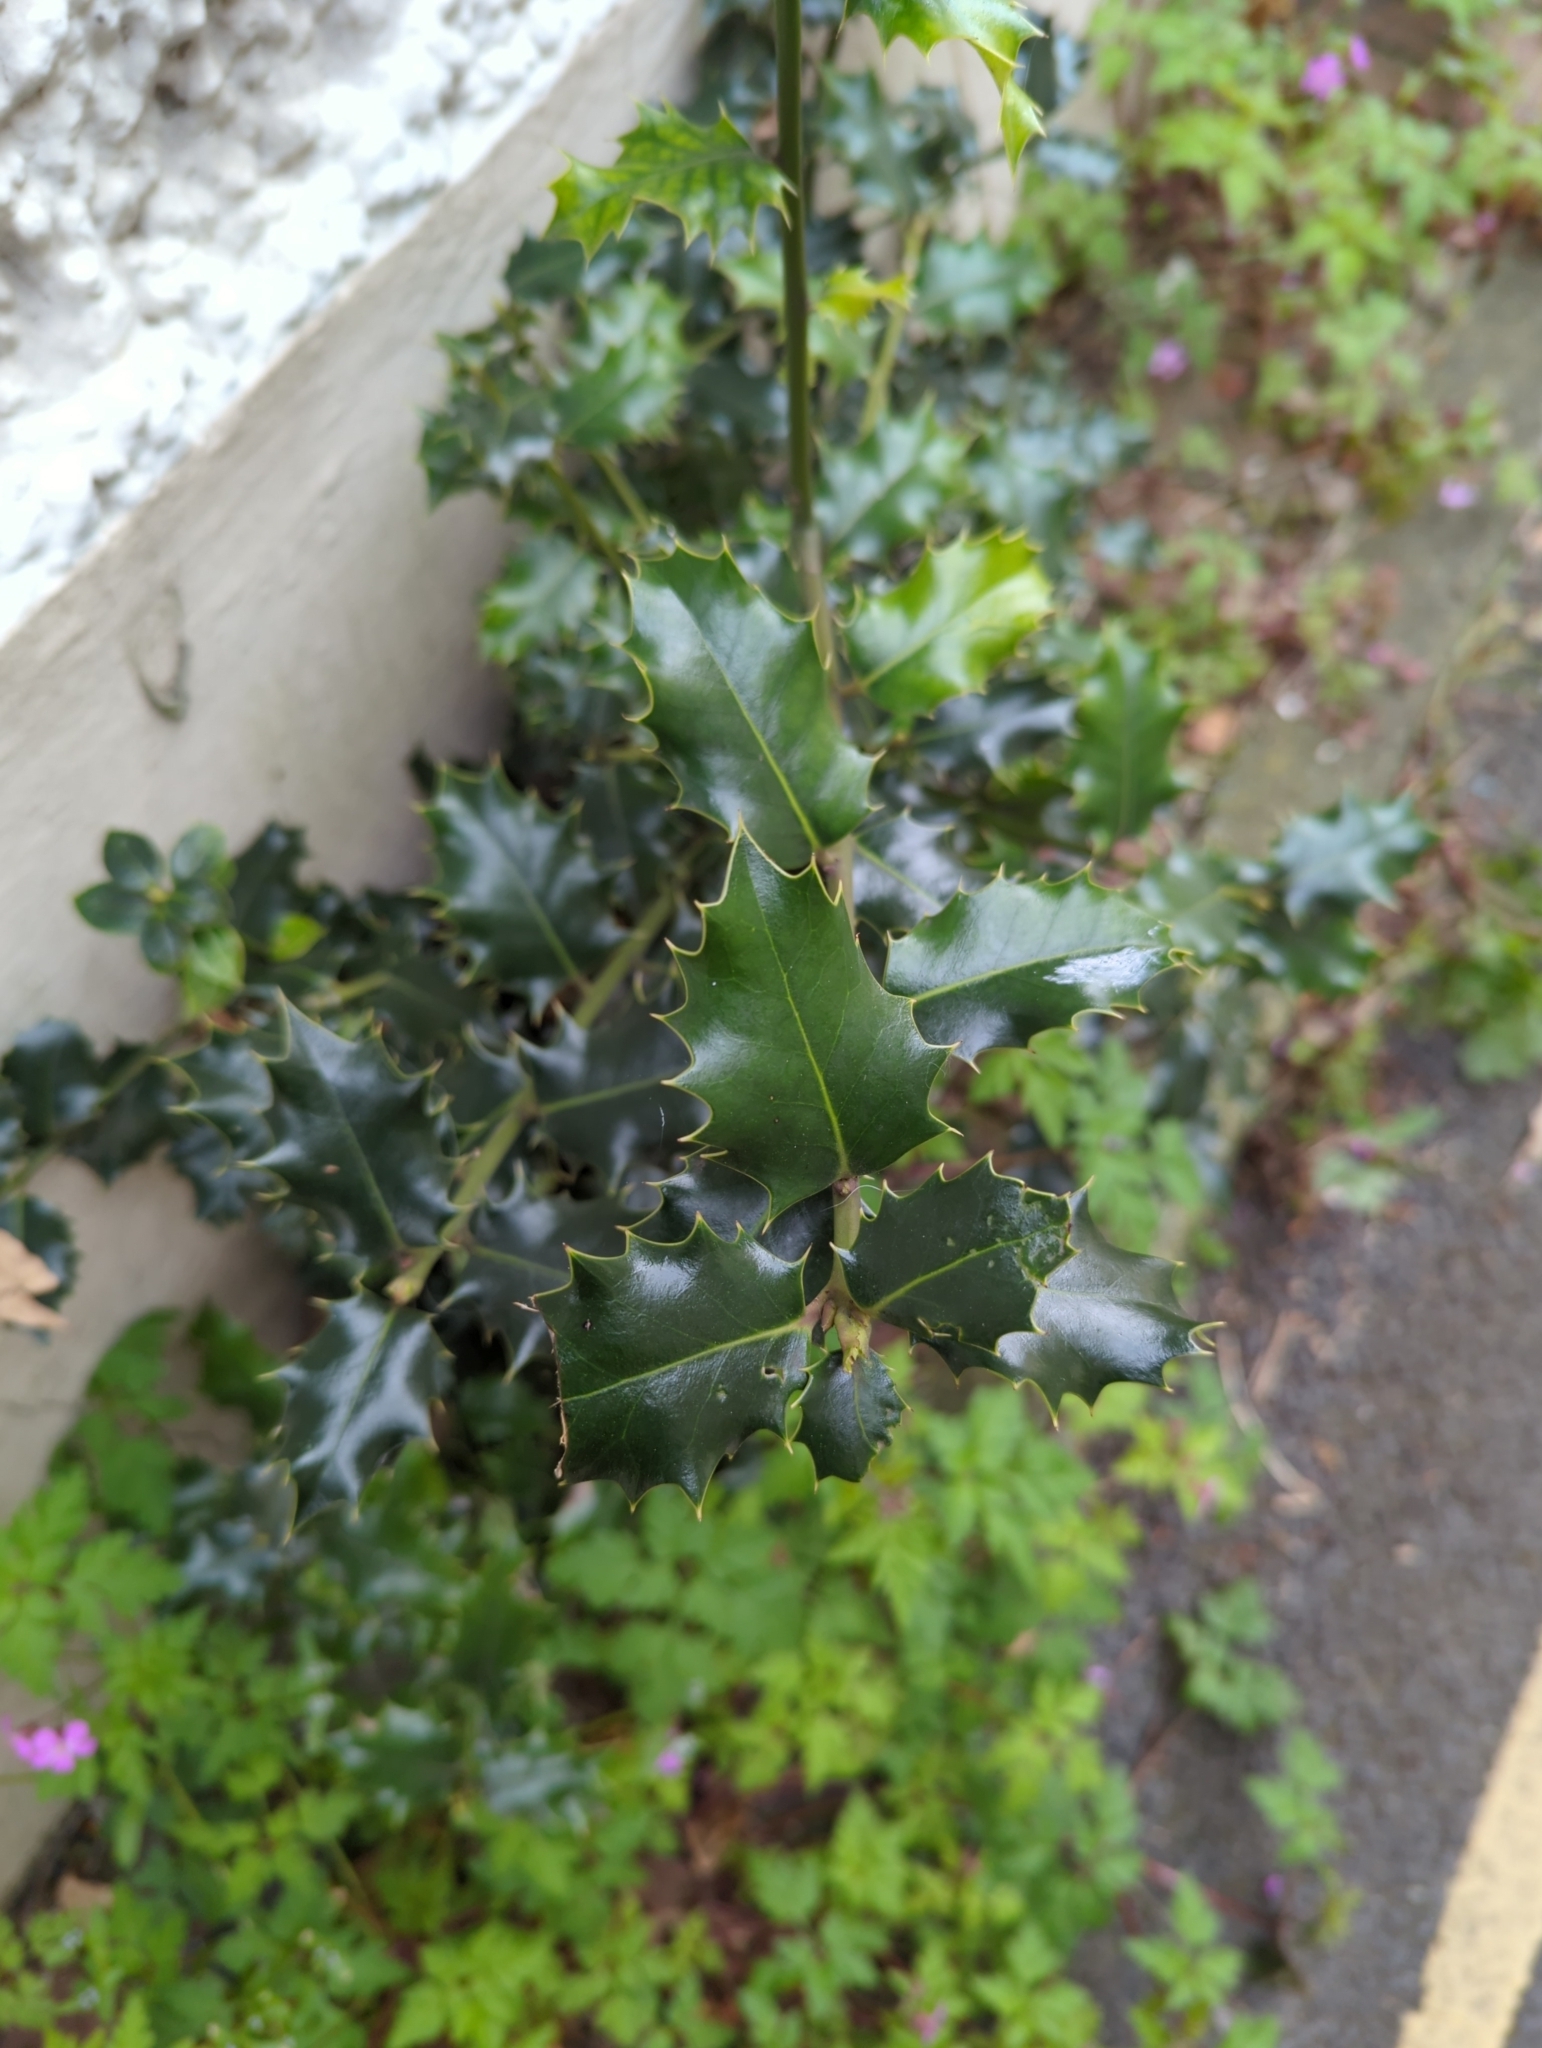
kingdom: Plantae
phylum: Tracheophyta
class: Magnoliopsida
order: Aquifoliales
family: Aquifoliaceae
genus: Ilex
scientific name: Ilex aquifolium
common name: English holly
